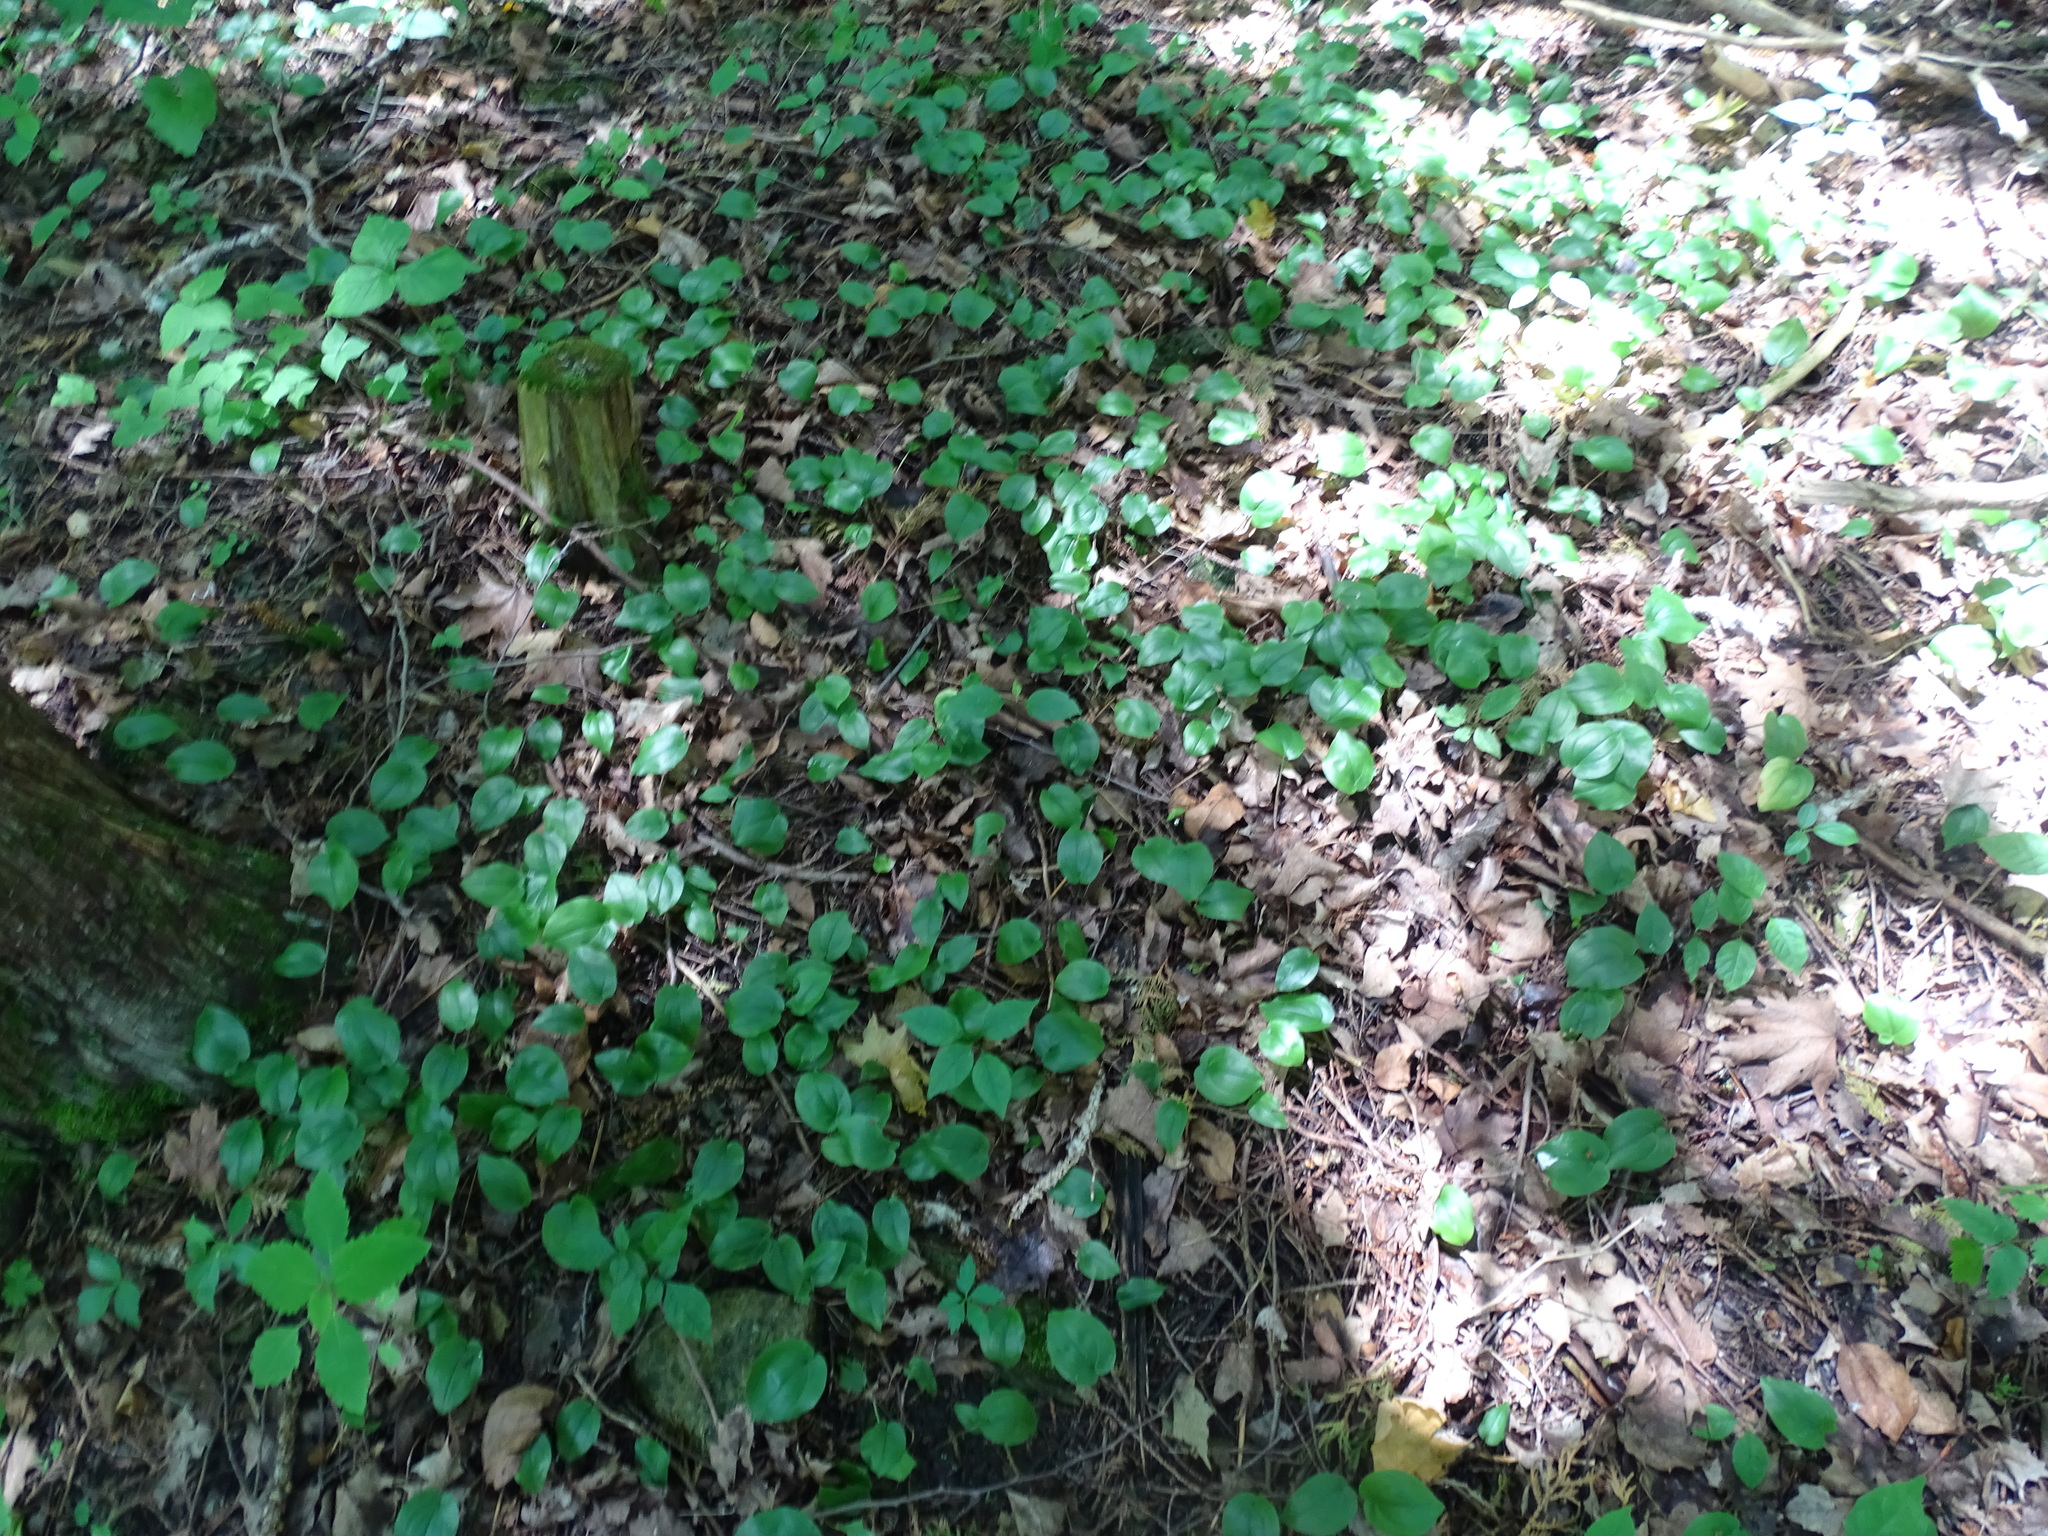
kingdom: Plantae
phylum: Tracheophyta
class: Liliopsida
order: Asparagales
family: Asparagaceae
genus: Maianthemum
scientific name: Maianthemum canadense
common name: False lily-of-the-valley
